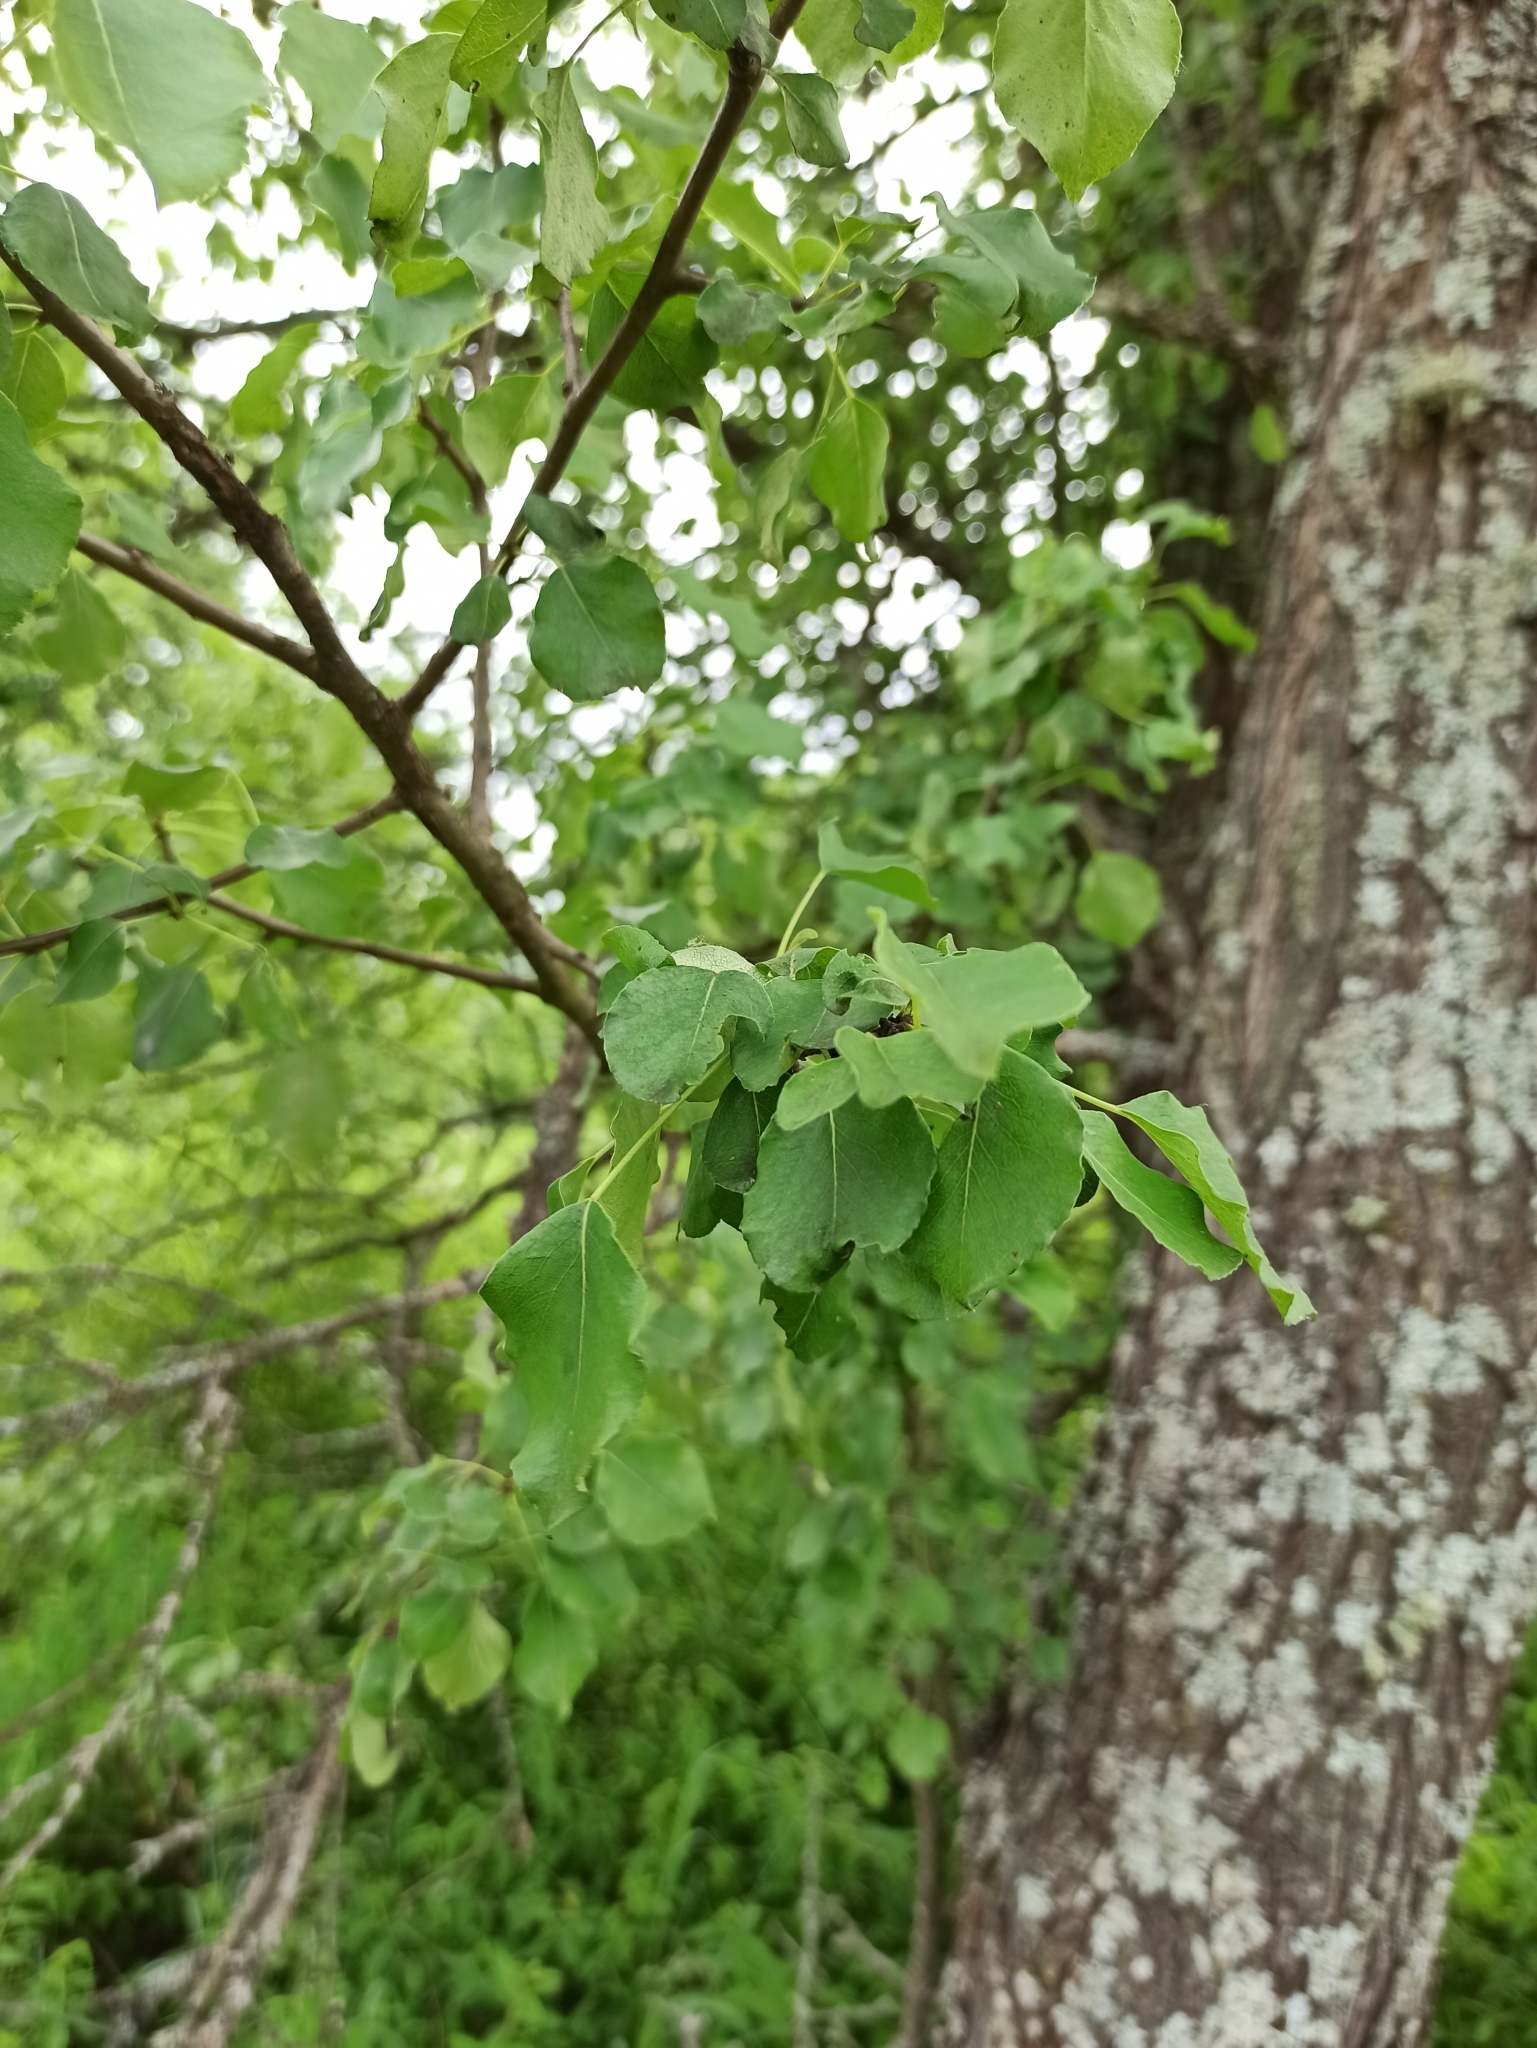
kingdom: Plantae
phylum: Tracheophyta
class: Magnoliopsida
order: Rosales
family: Rosaceae
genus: Pyrus
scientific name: Pyrus communis
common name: Pear
